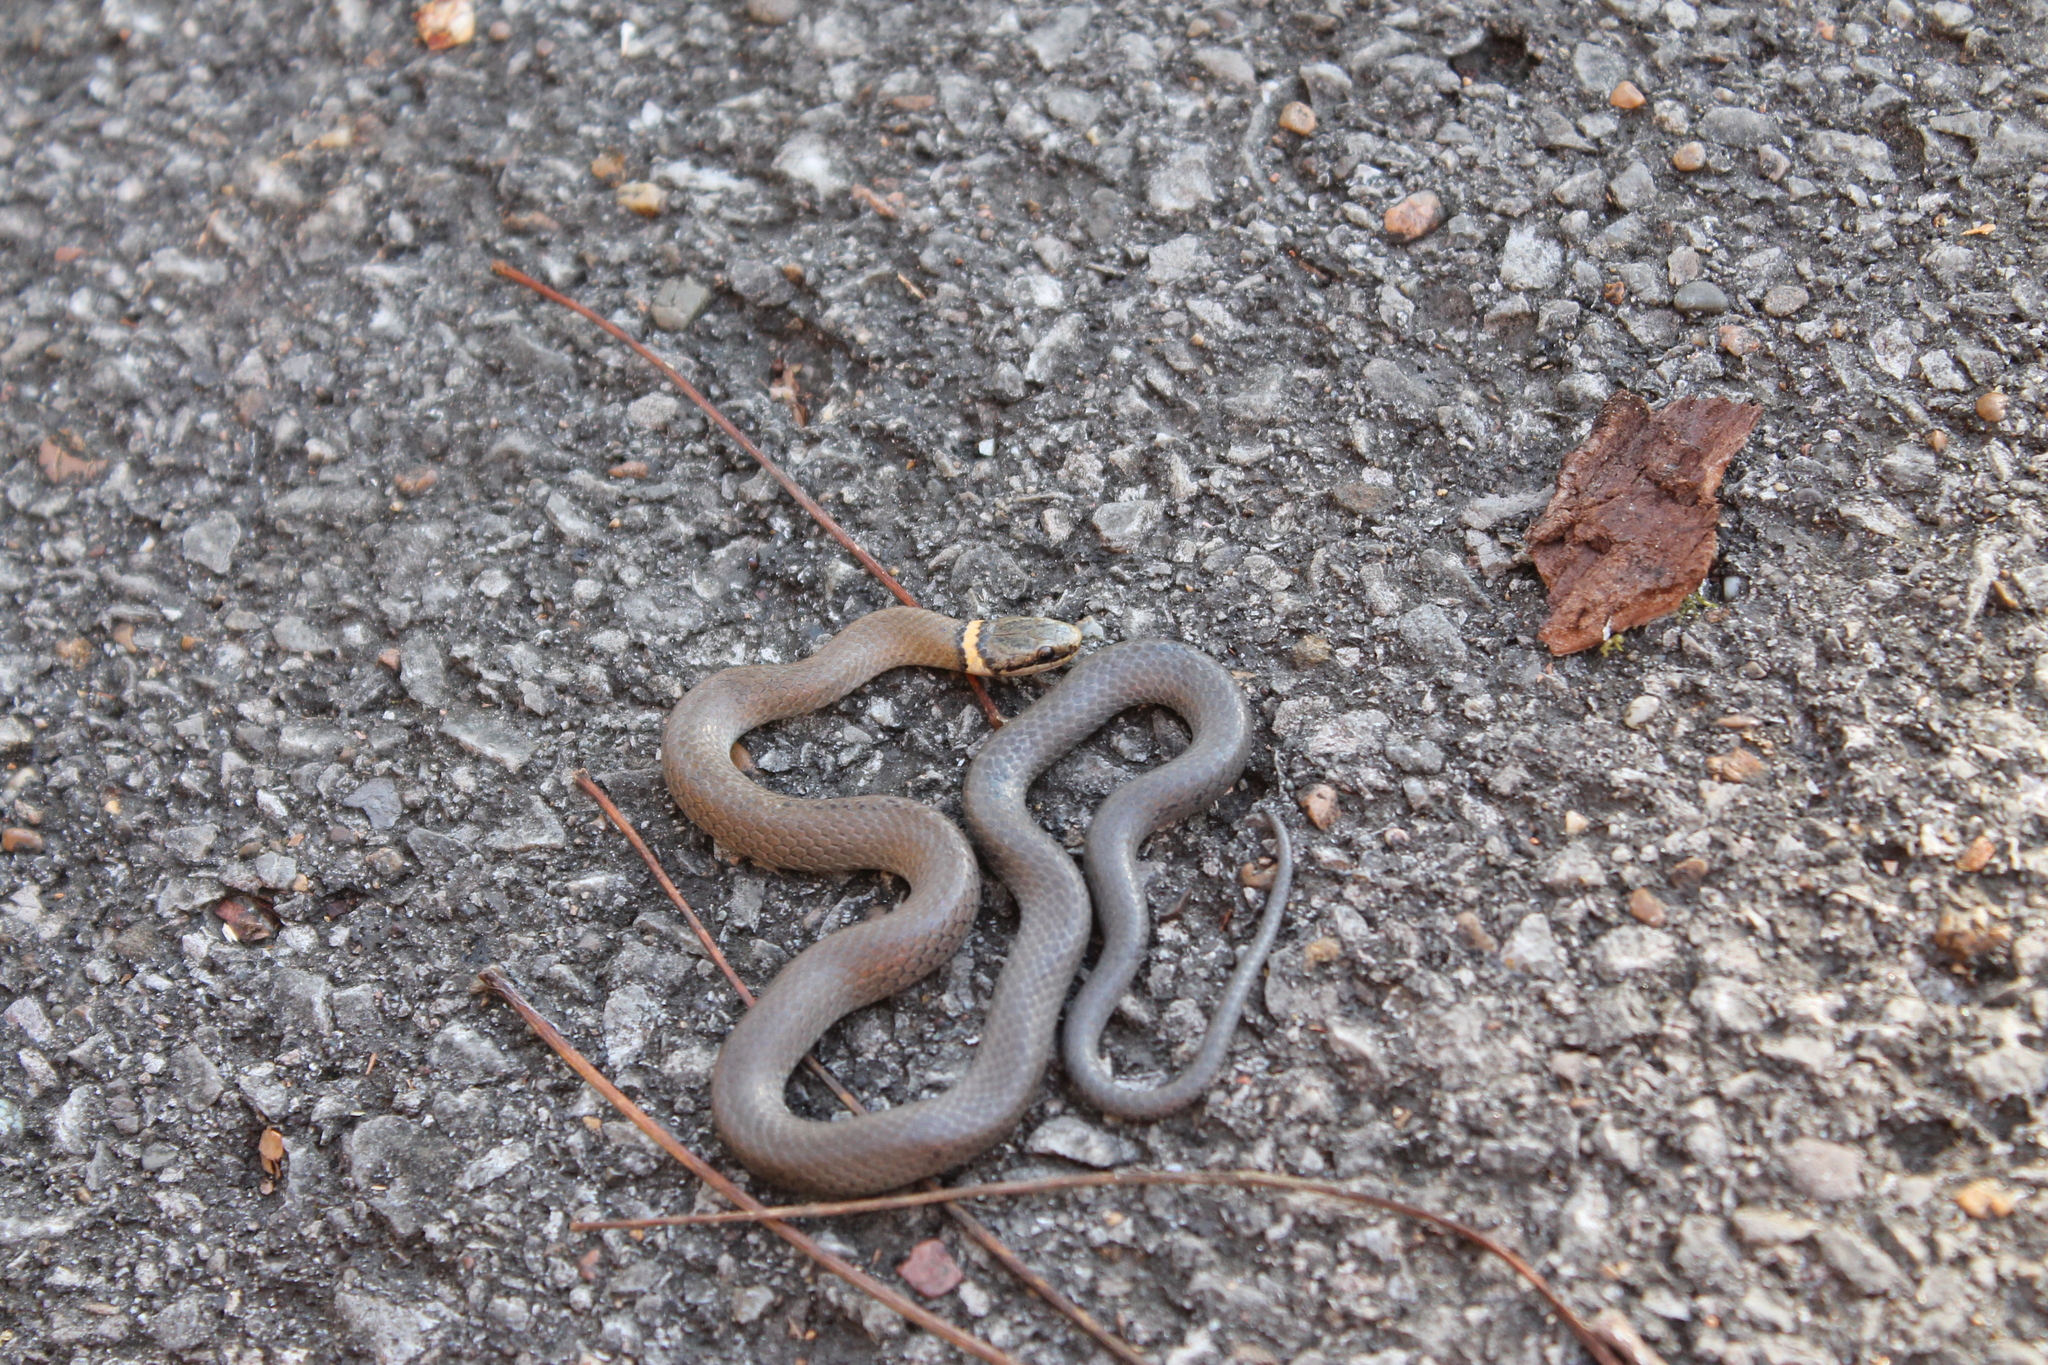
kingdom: Animalia
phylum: Chordata
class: Squamata
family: Colubridae
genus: Diadophis
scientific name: Diadophis punctatus
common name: Ringneck snake
